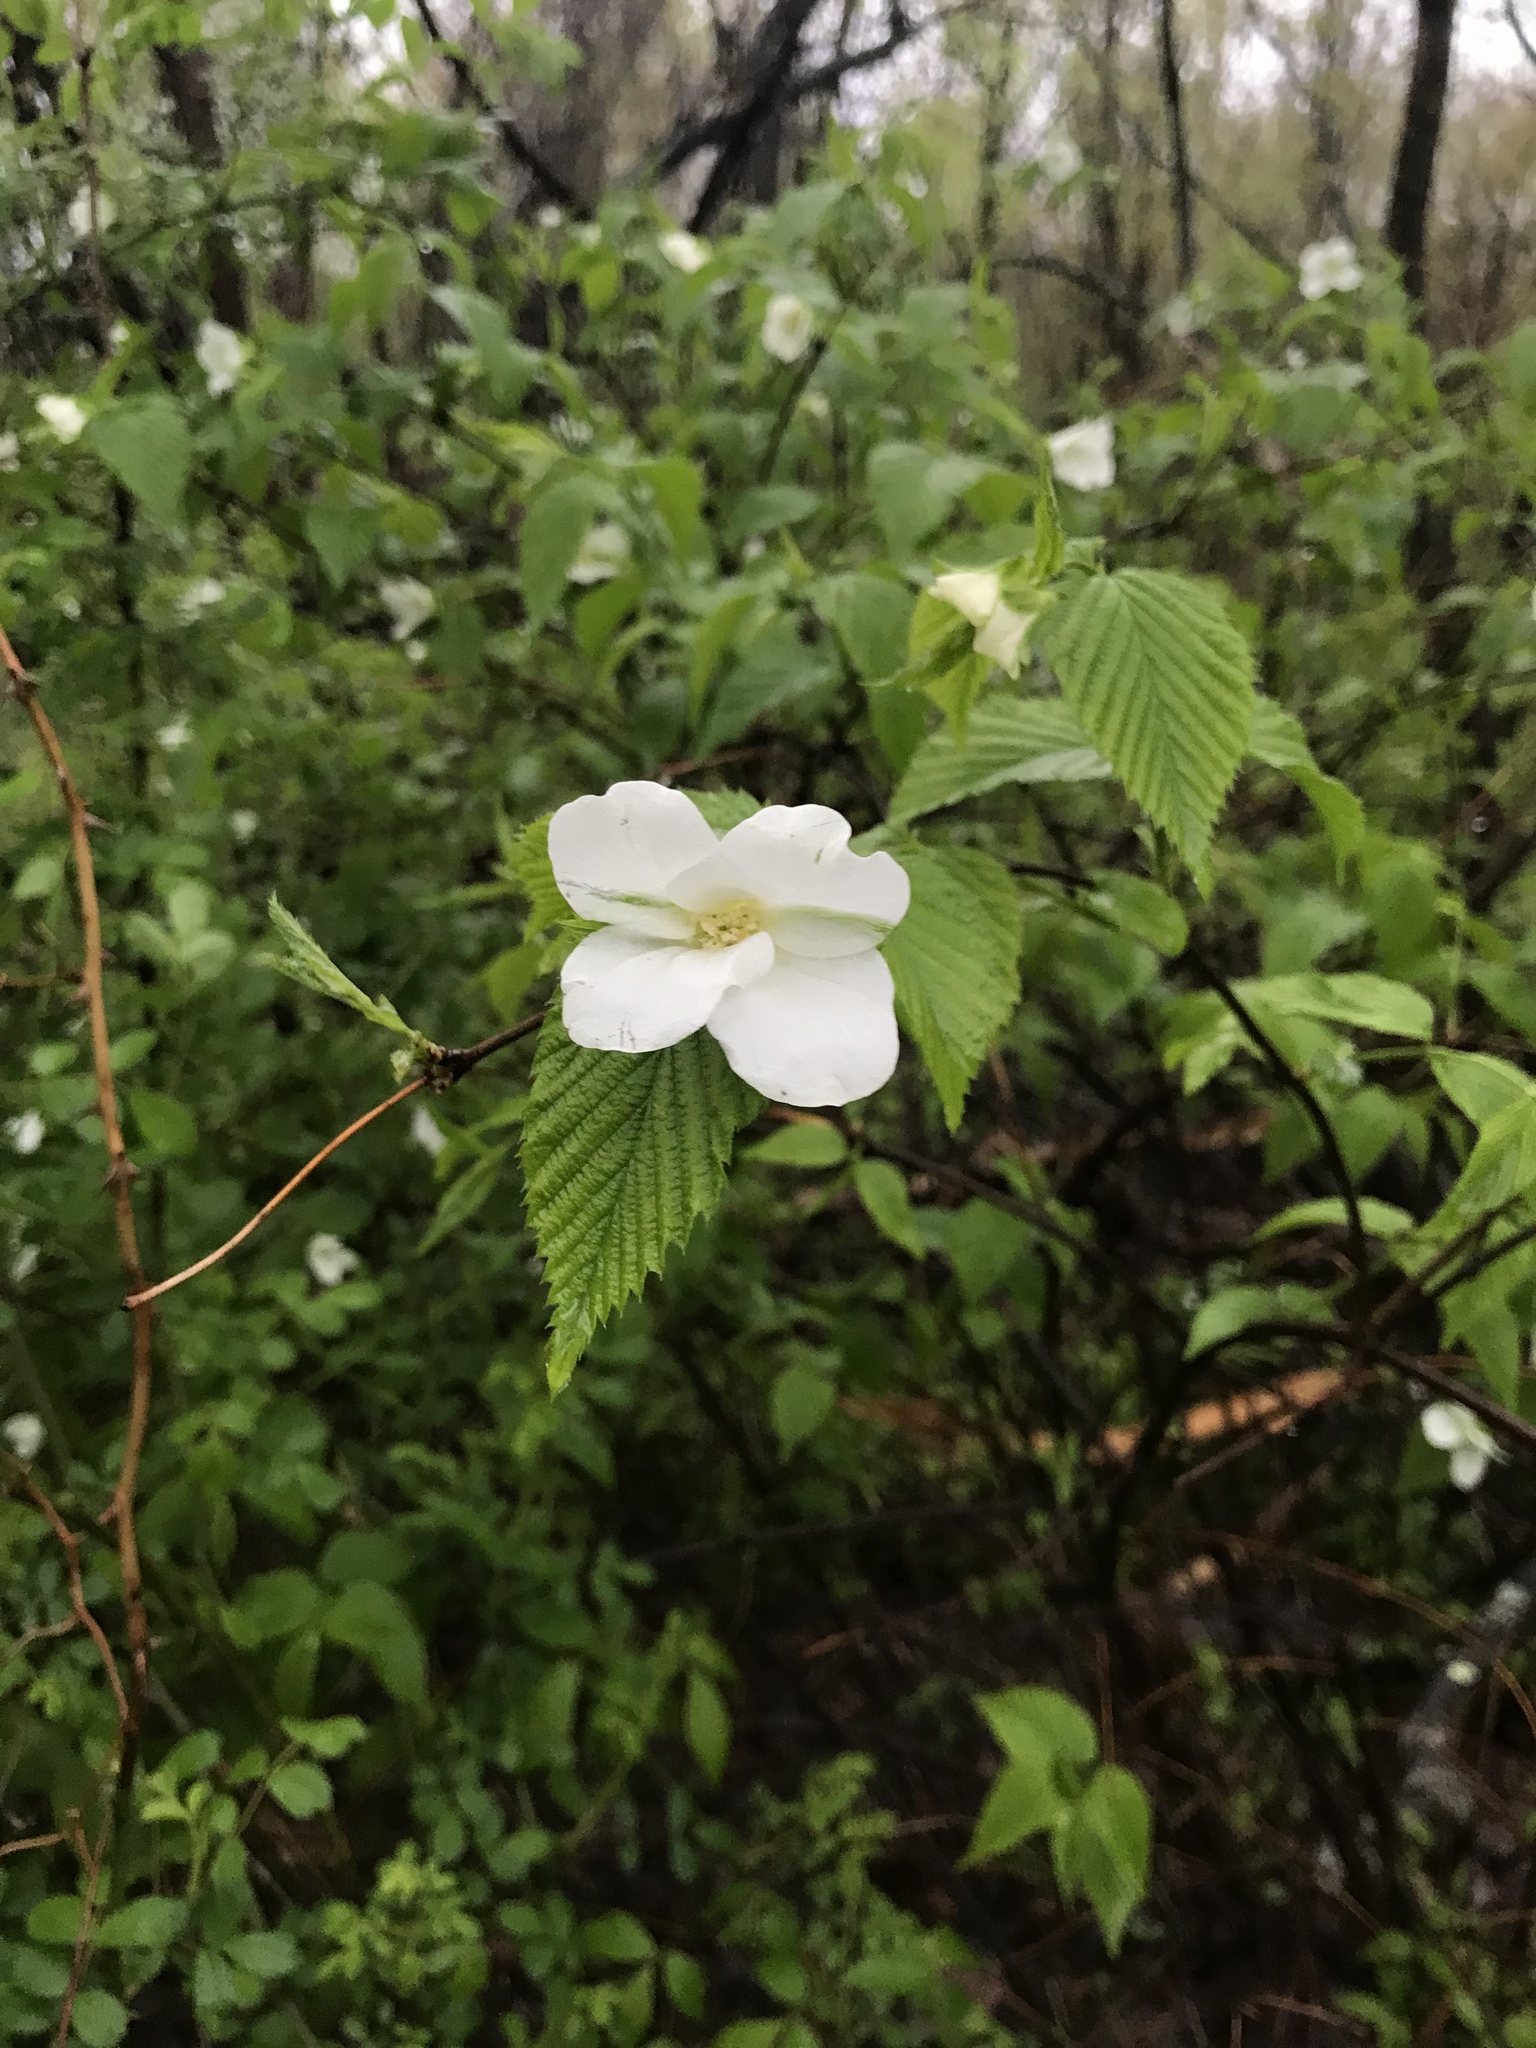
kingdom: Plantae
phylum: Tracheophyta
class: Magnoliopsida
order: Rosales
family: Rosaceae
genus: Rhodotypos
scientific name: Rhodotypos scandens
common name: Jetbead
